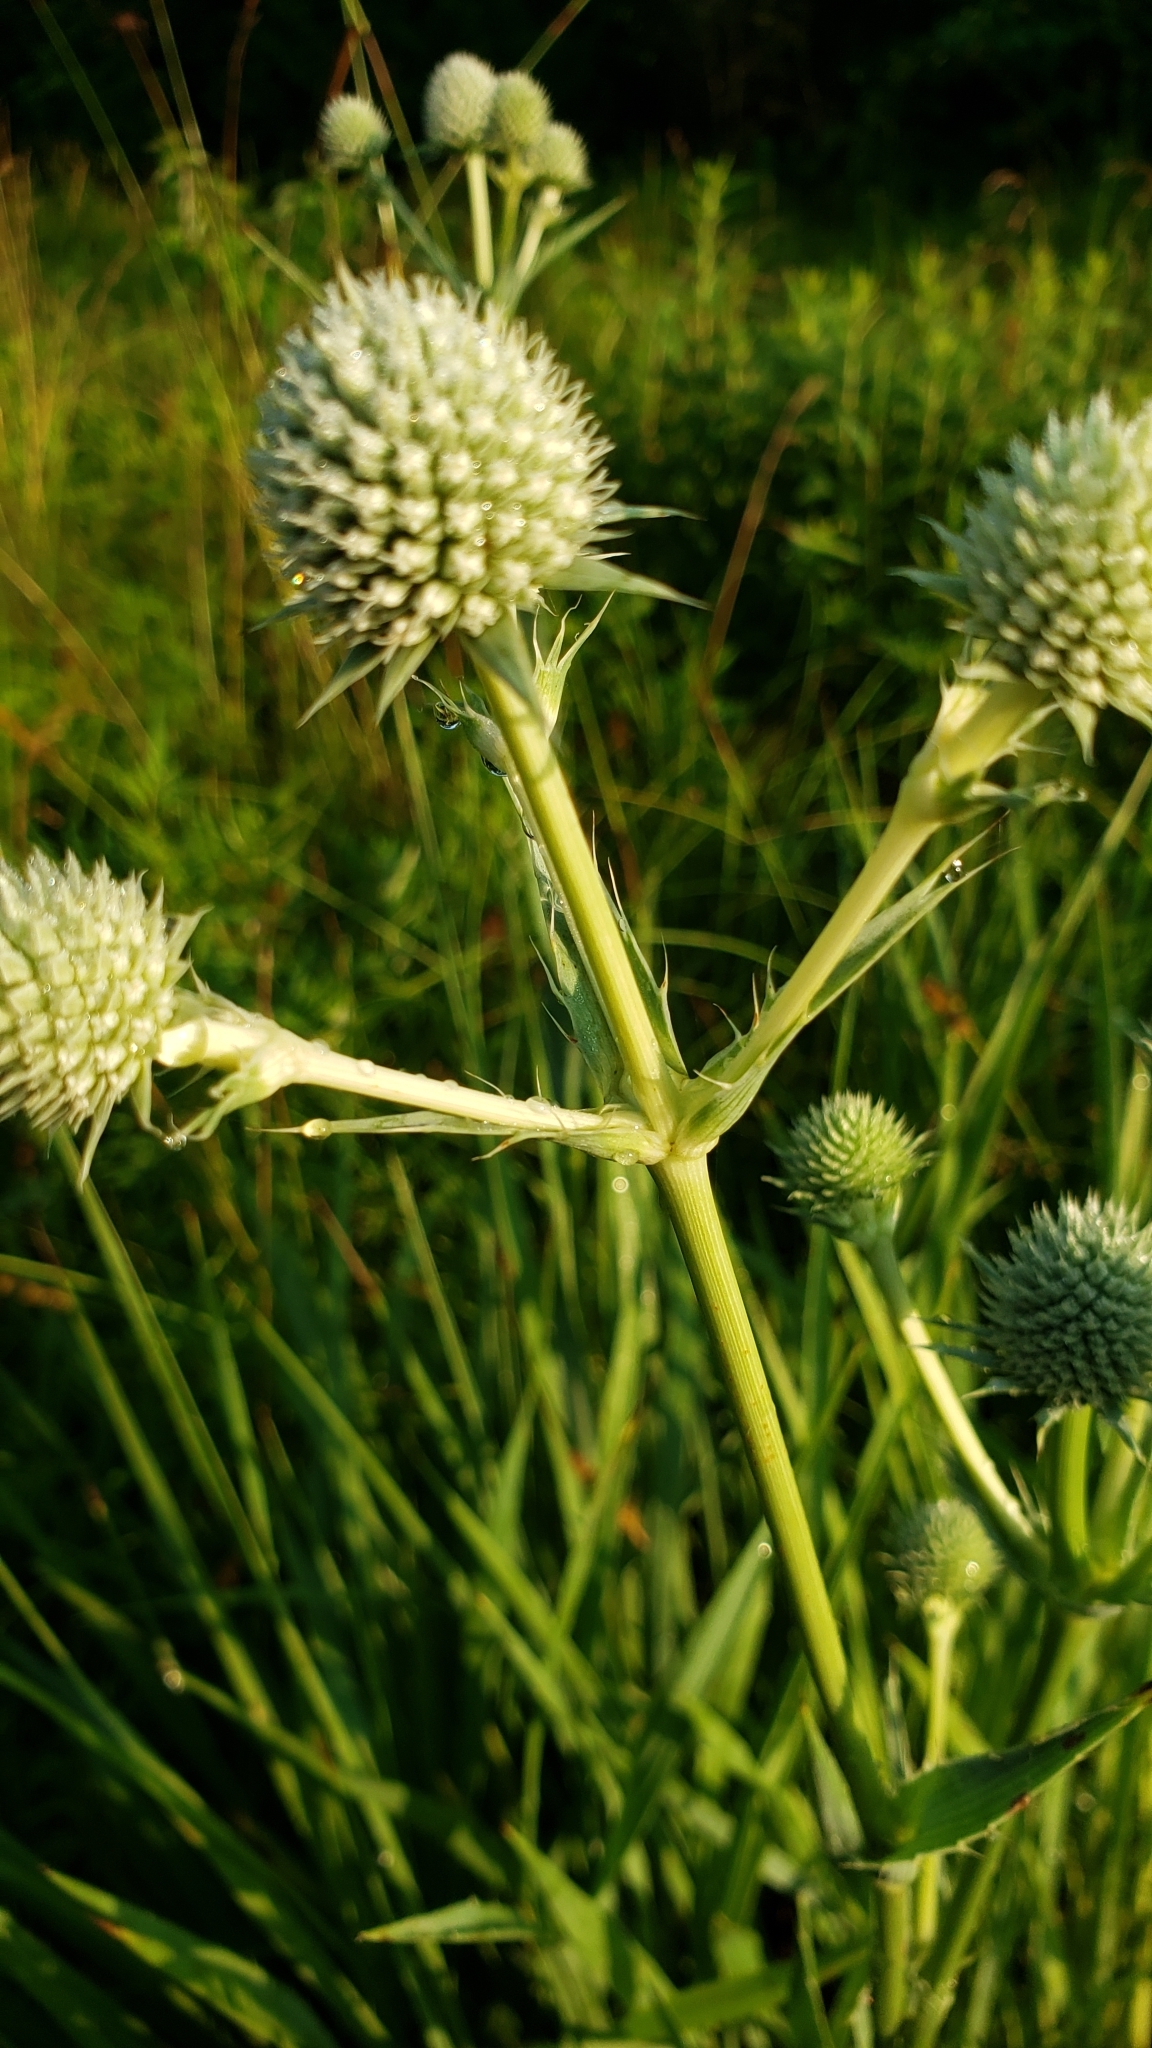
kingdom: Plantae
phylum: Tracheophyta
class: Magnoliopsida
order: Apiales
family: Apiaceae
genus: Eryngium
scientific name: Eryngium yuccifolium
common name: Button eryngo
